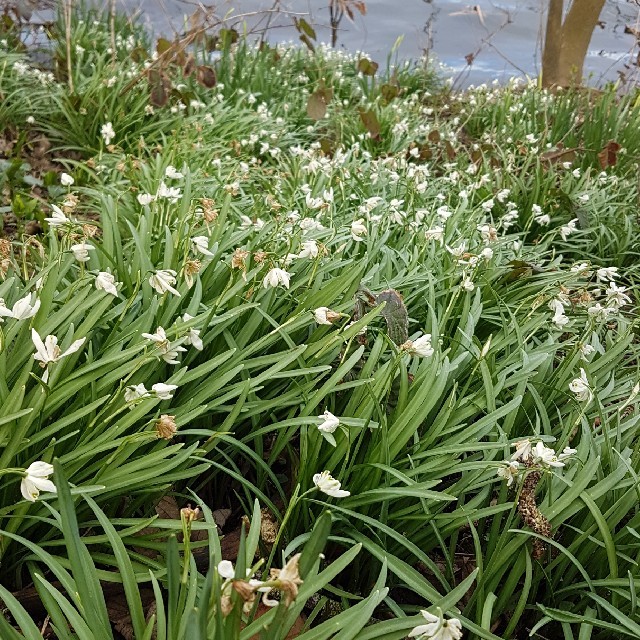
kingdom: Plantae
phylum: Tracheophyta
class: Liliopsida
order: Asparagales
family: Amaryllidaceae
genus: Galanthus
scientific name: Galanthus nivalis
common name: Snowdrop
